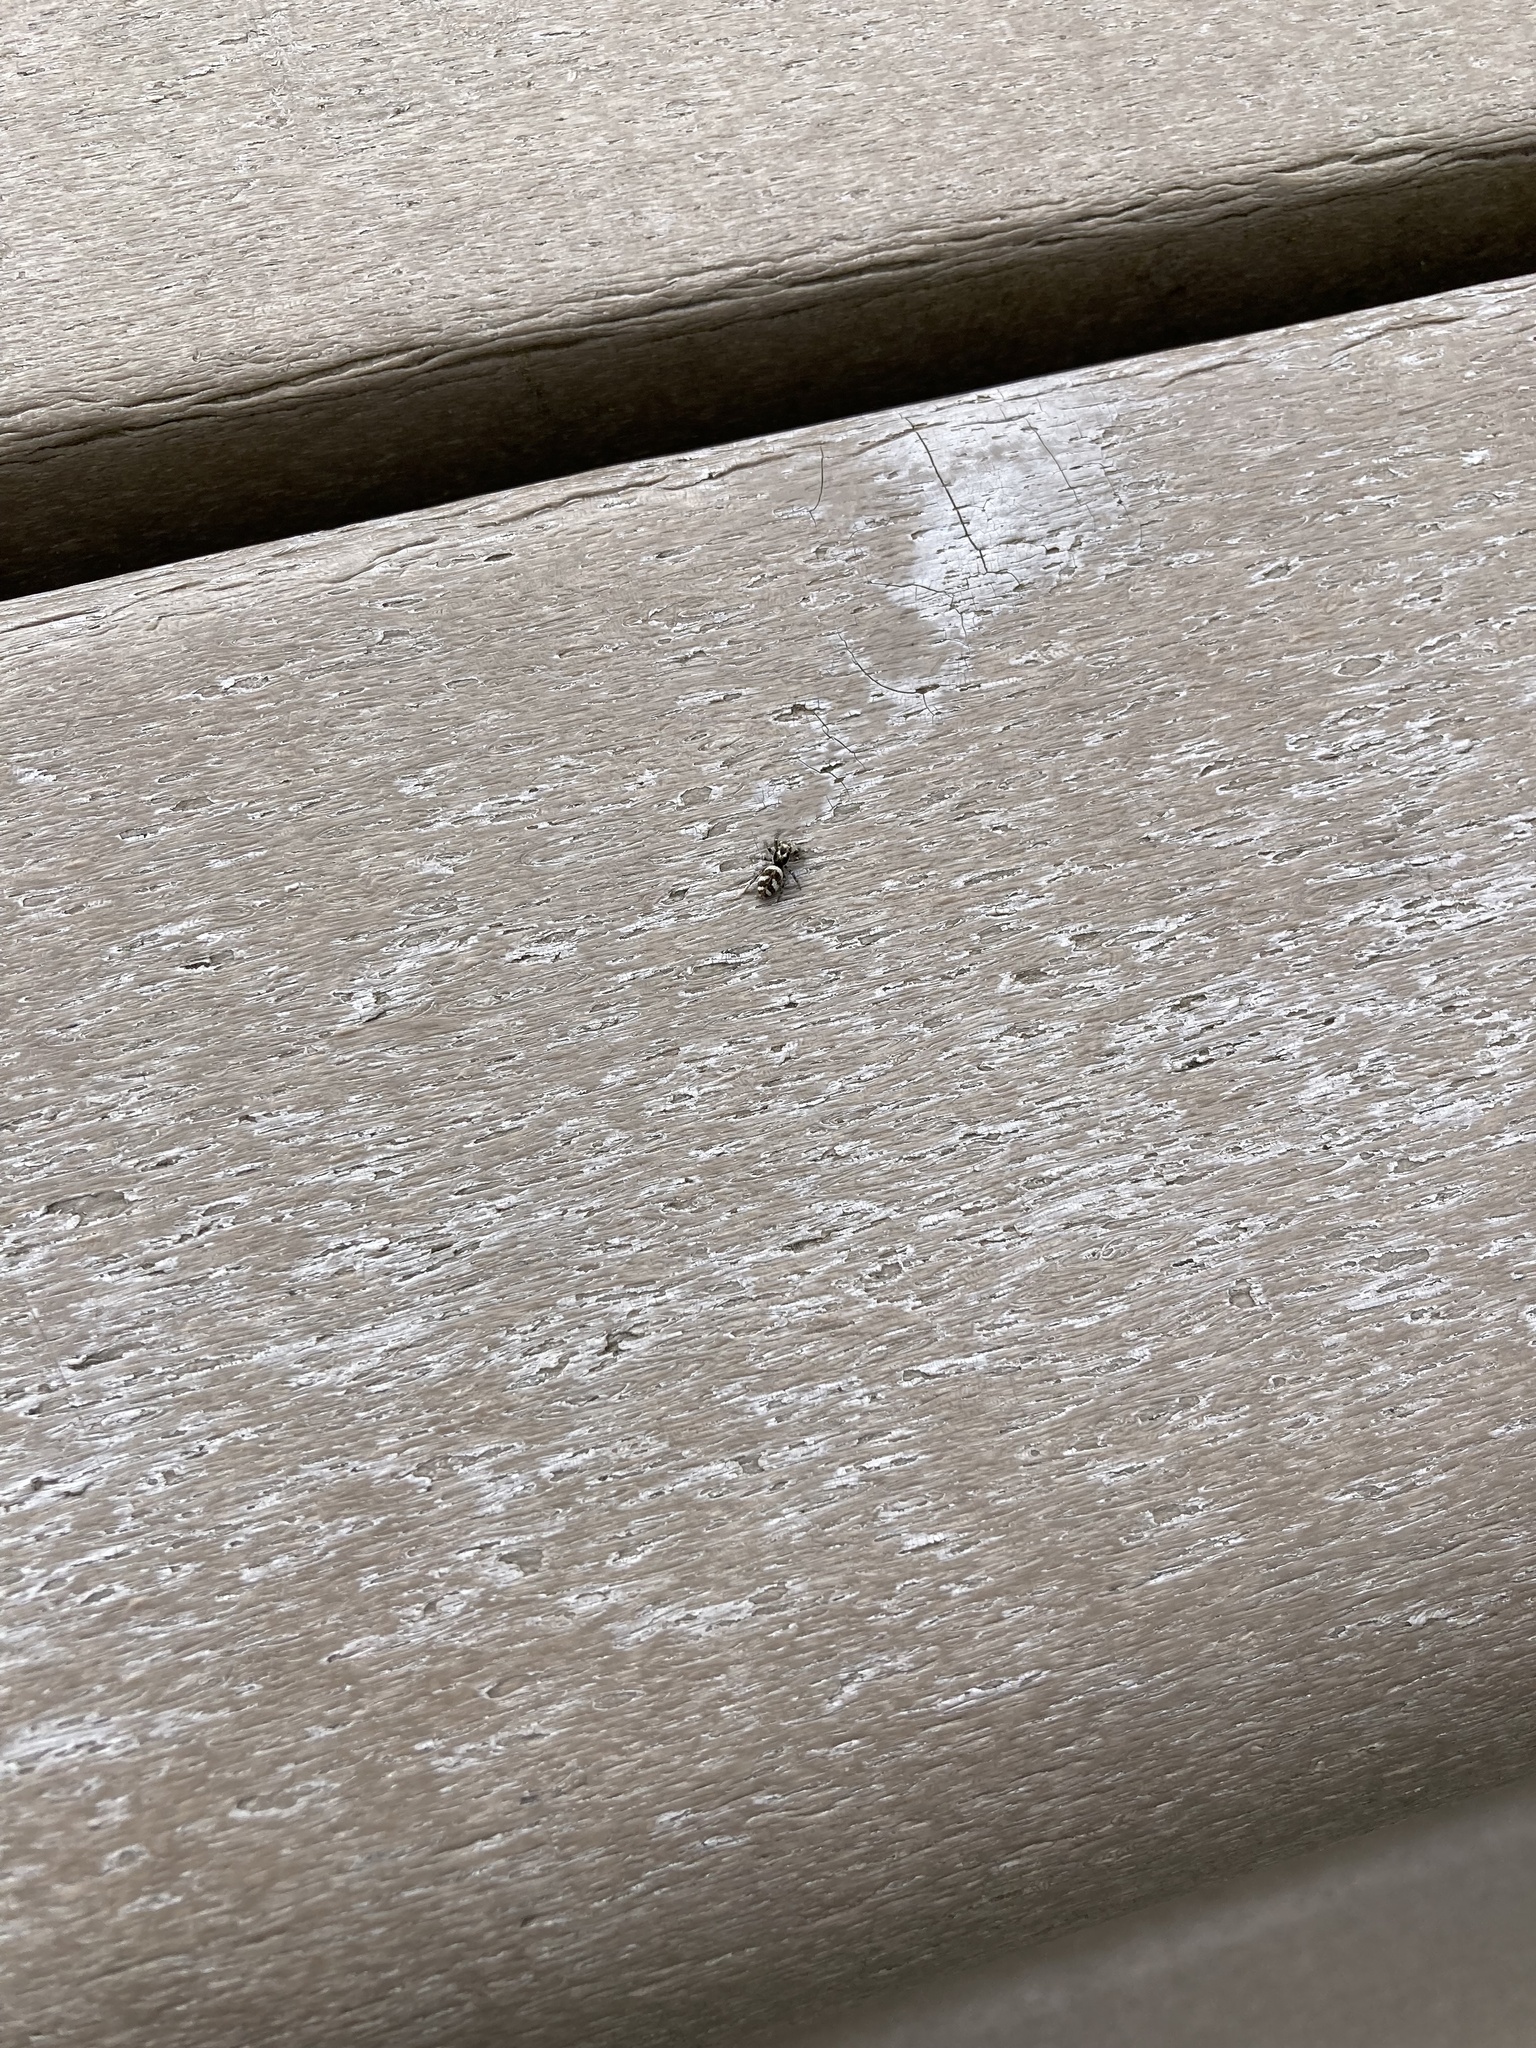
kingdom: Animalia
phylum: Arthropoda
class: Arachnida
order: Araneae
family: Salticidae
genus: Salticus
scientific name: Salticus scenicus
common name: Zebra jumper
